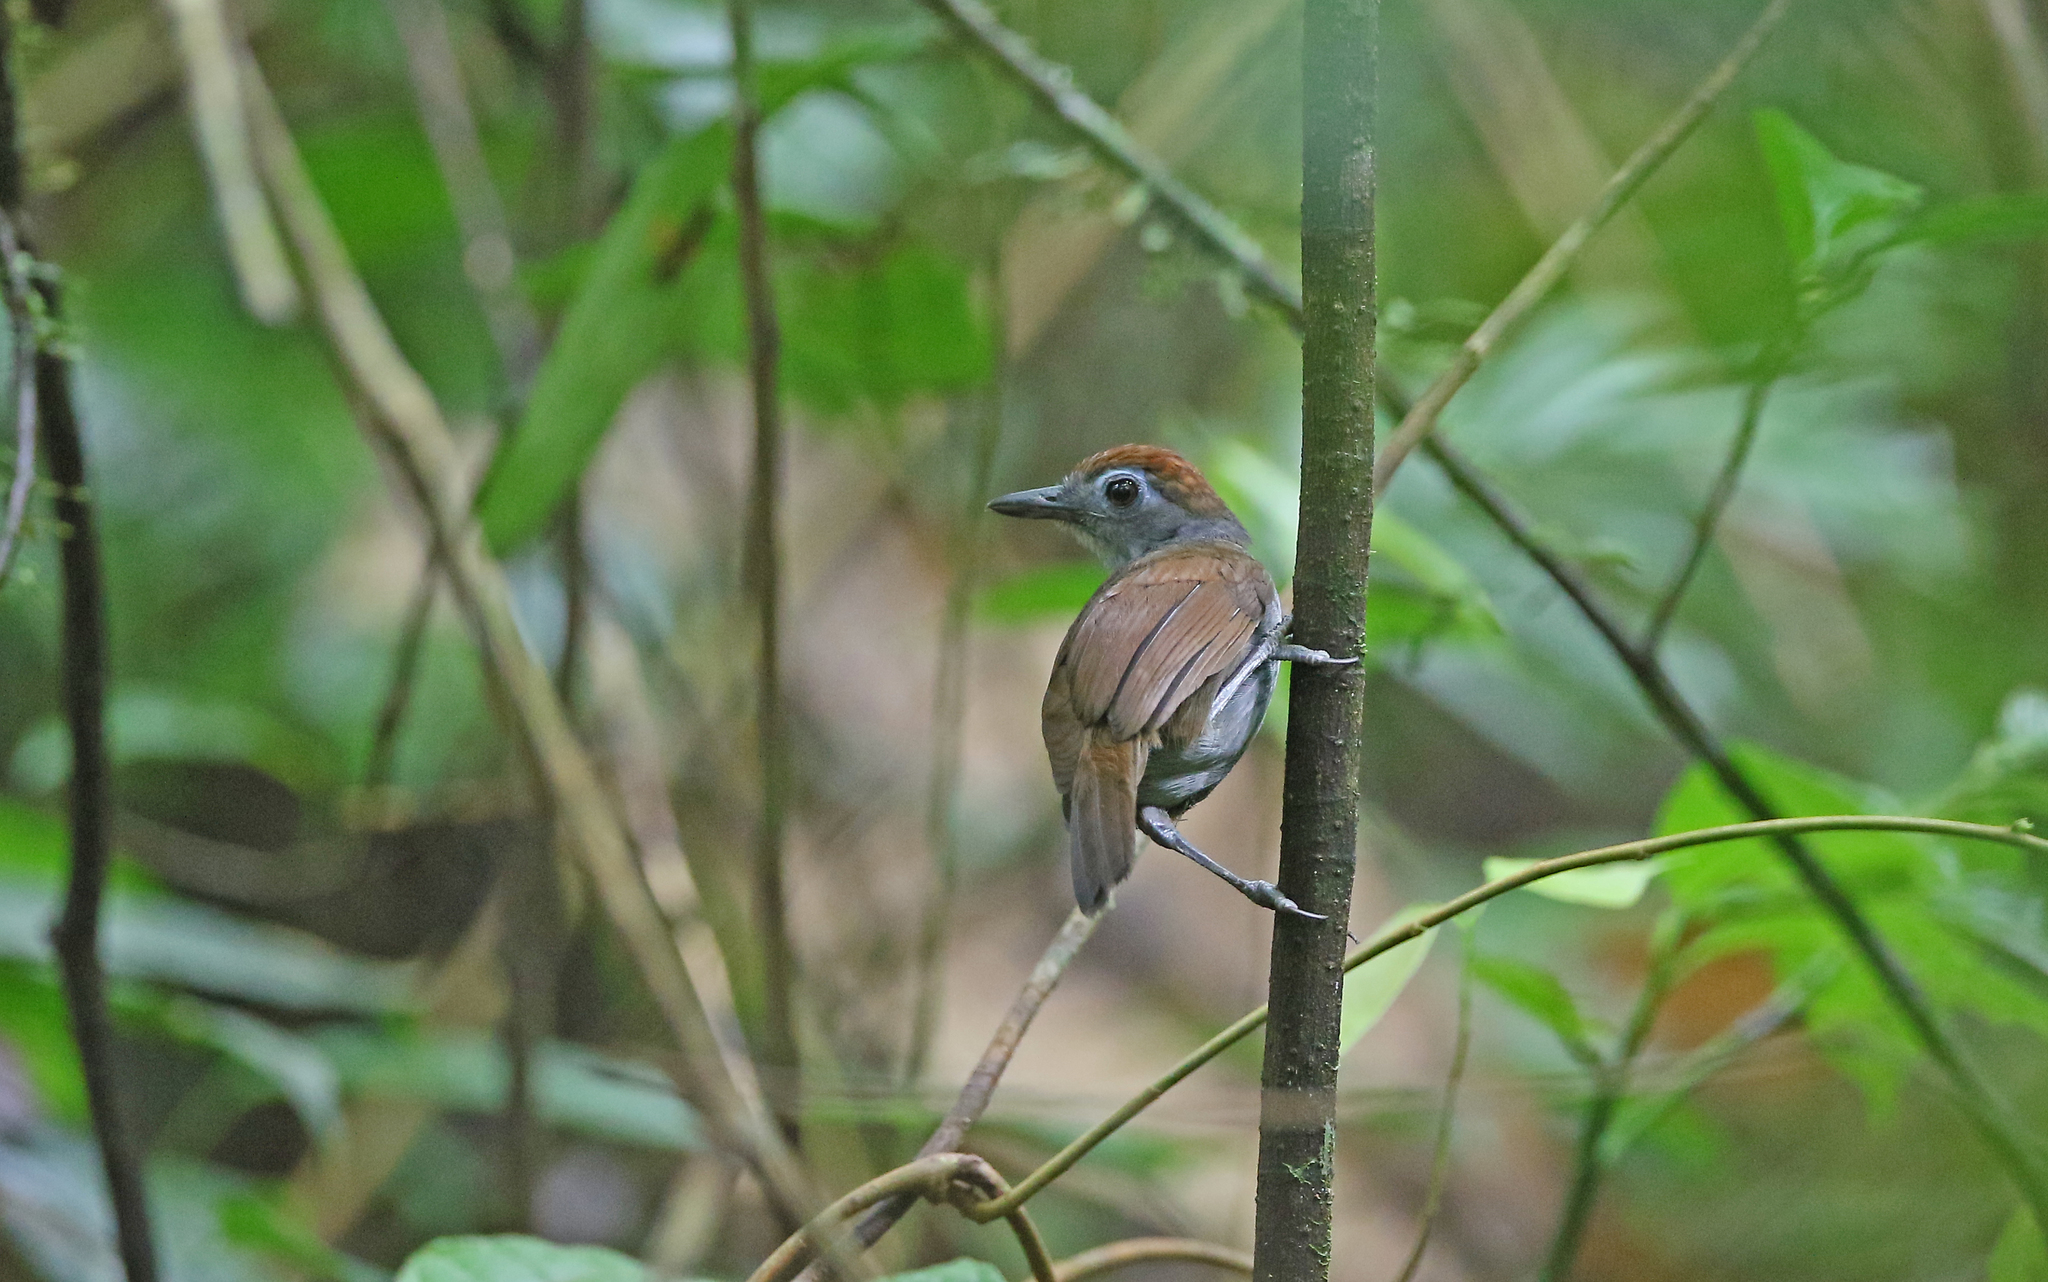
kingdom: Animalia
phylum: Chordata
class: Aves
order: Passeriformes
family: Thamnophilidae
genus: Myrmeciza
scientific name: Myrmeciza fortis
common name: Sooty antbird
